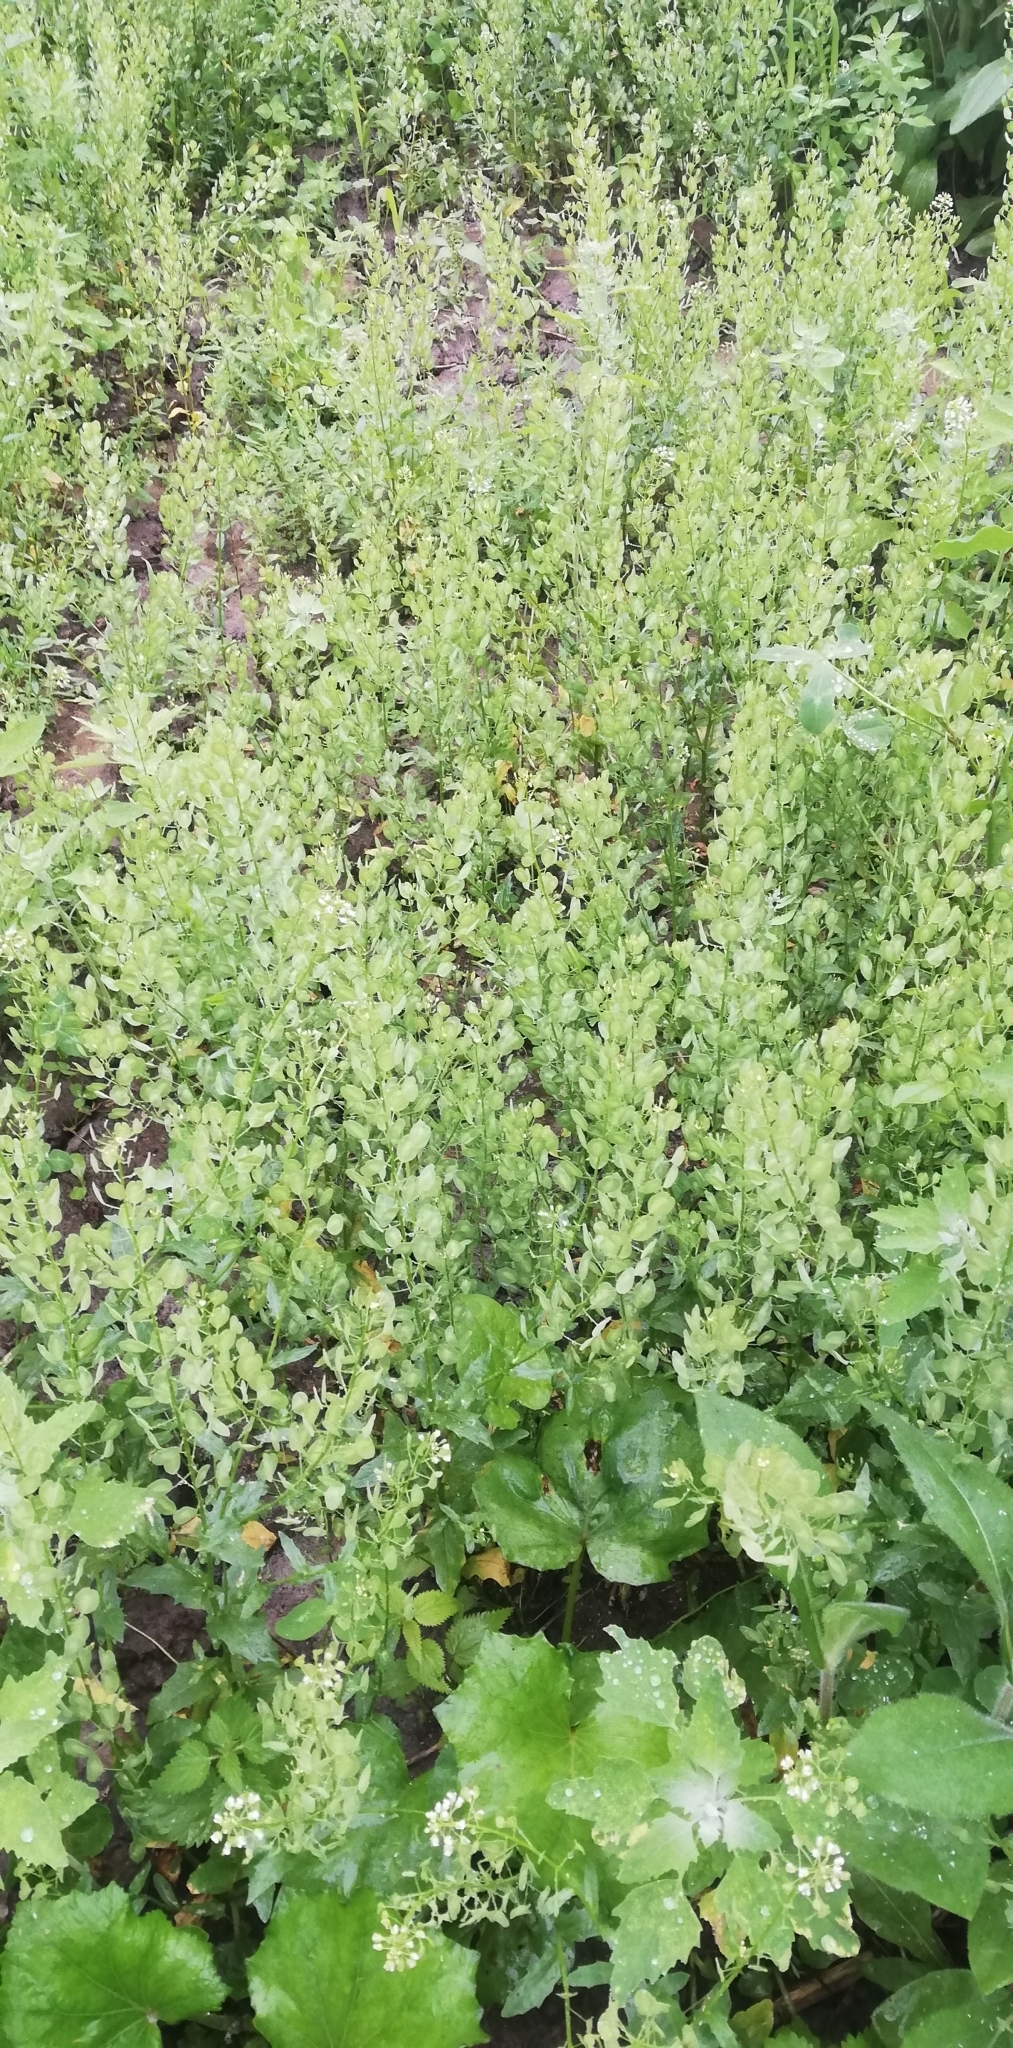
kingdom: Plantae
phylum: Tracheophyta
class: Magnoliopsida
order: Brassicales
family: Brassicaceae
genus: Thlaspi
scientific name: Thlaspi arvense
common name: Field pennycress
